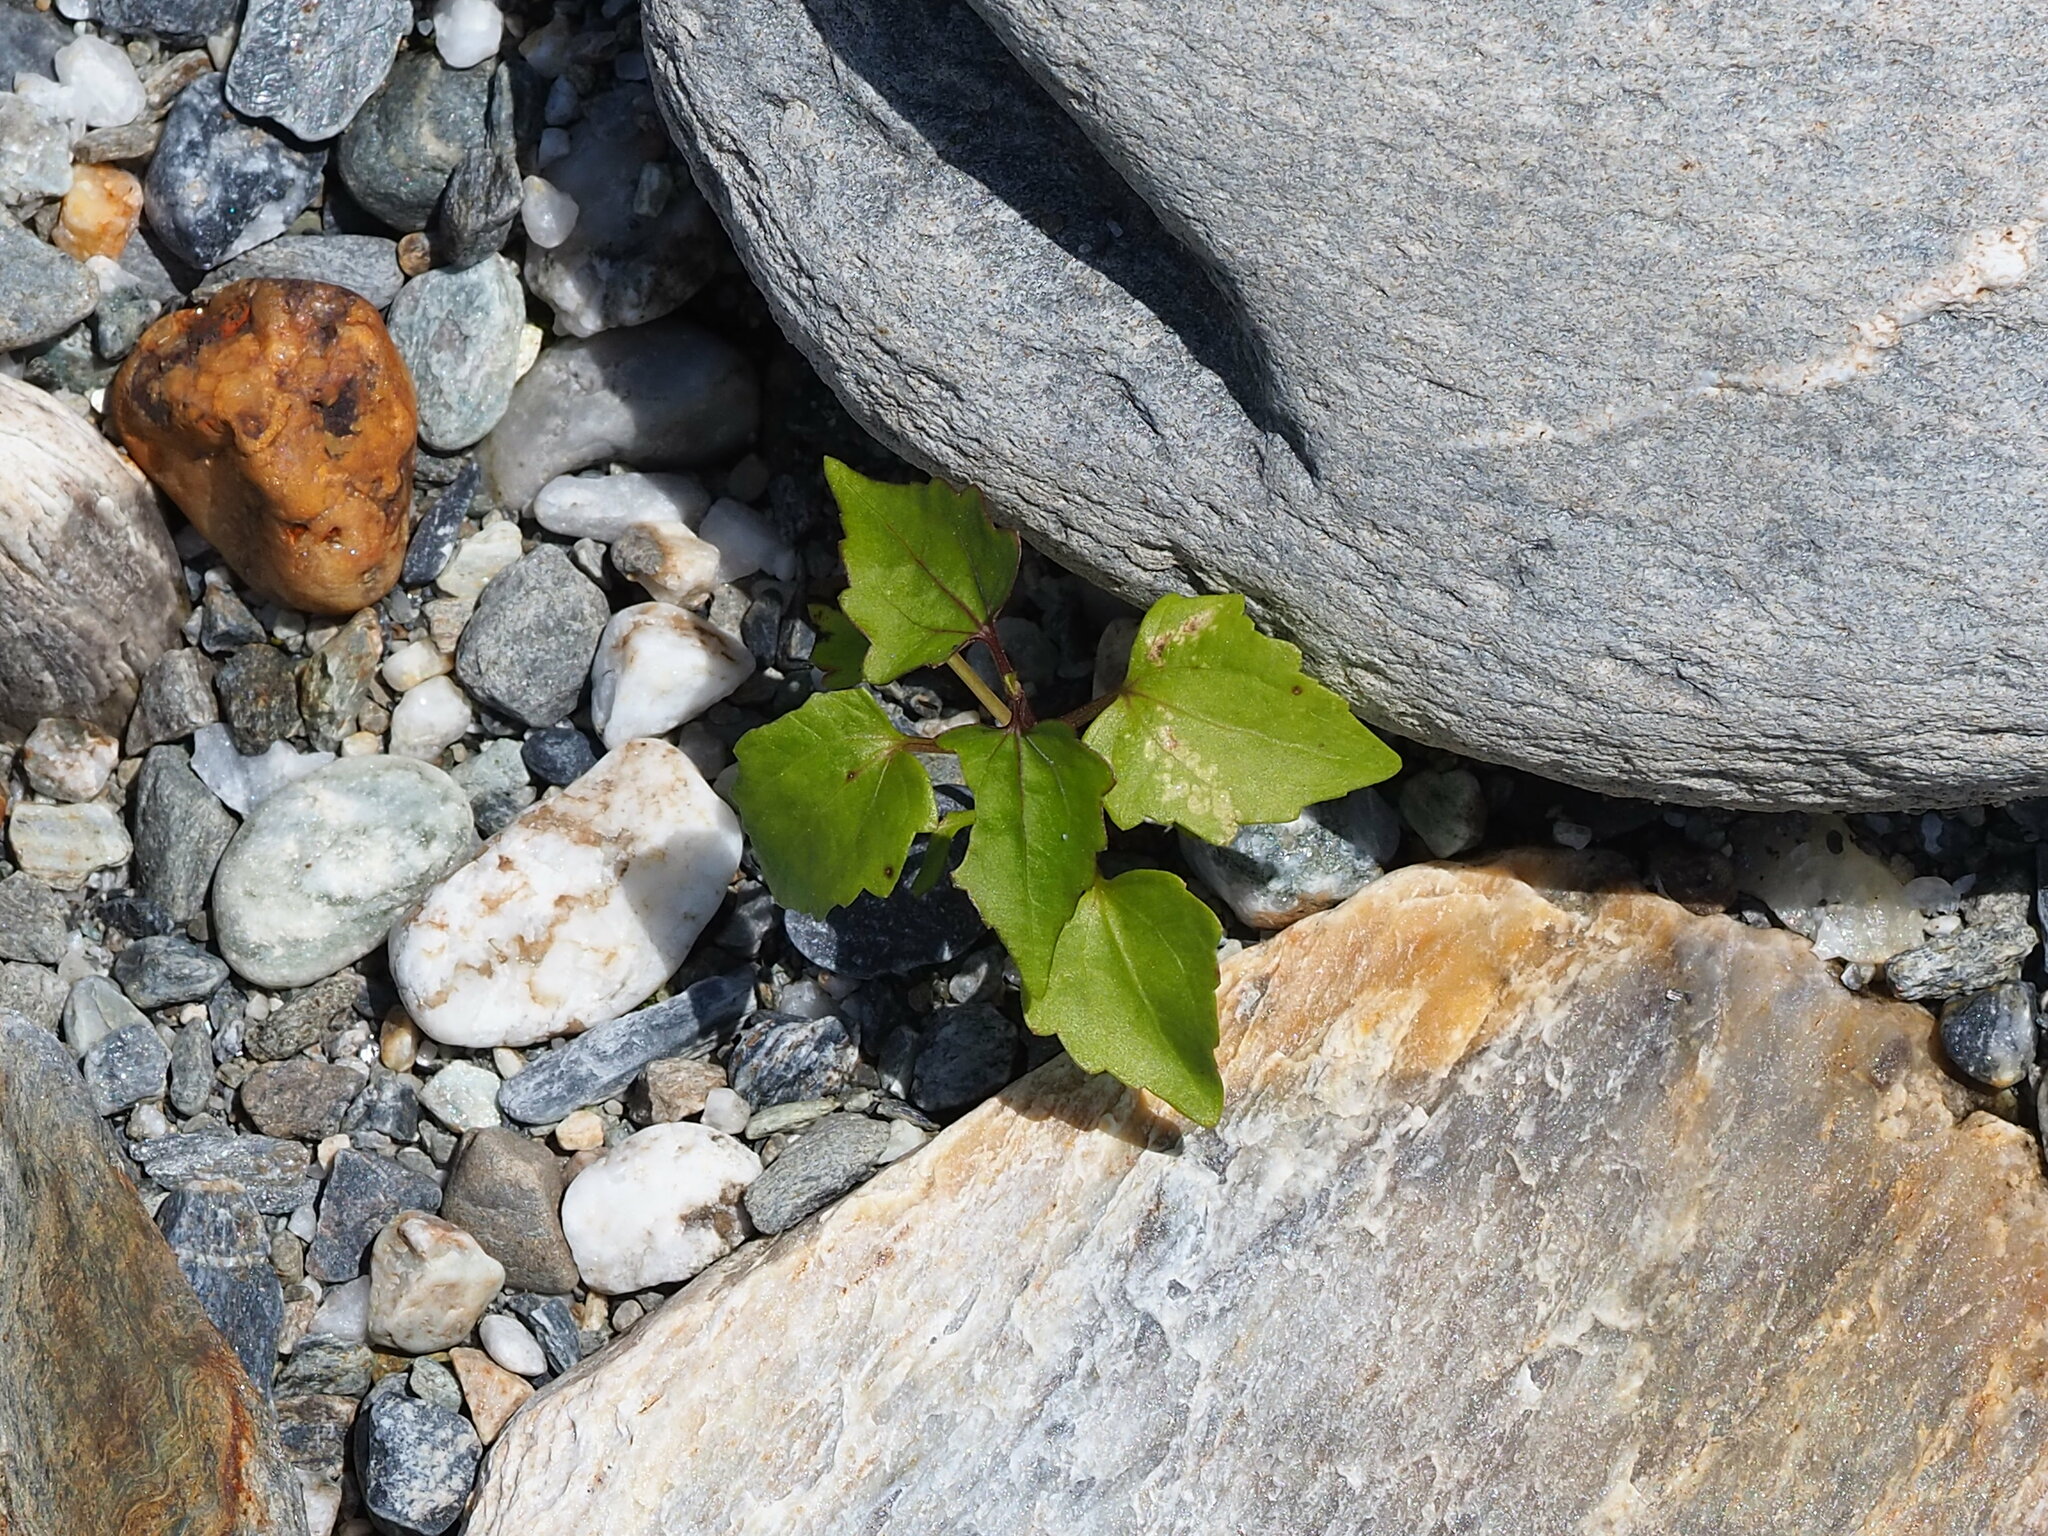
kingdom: Plantae
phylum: Tracheophyta
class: Magnoliopsida
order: Asterales
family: Asteraceae
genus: Mikania
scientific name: Mikania micrantha
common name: Mile-a-minute
